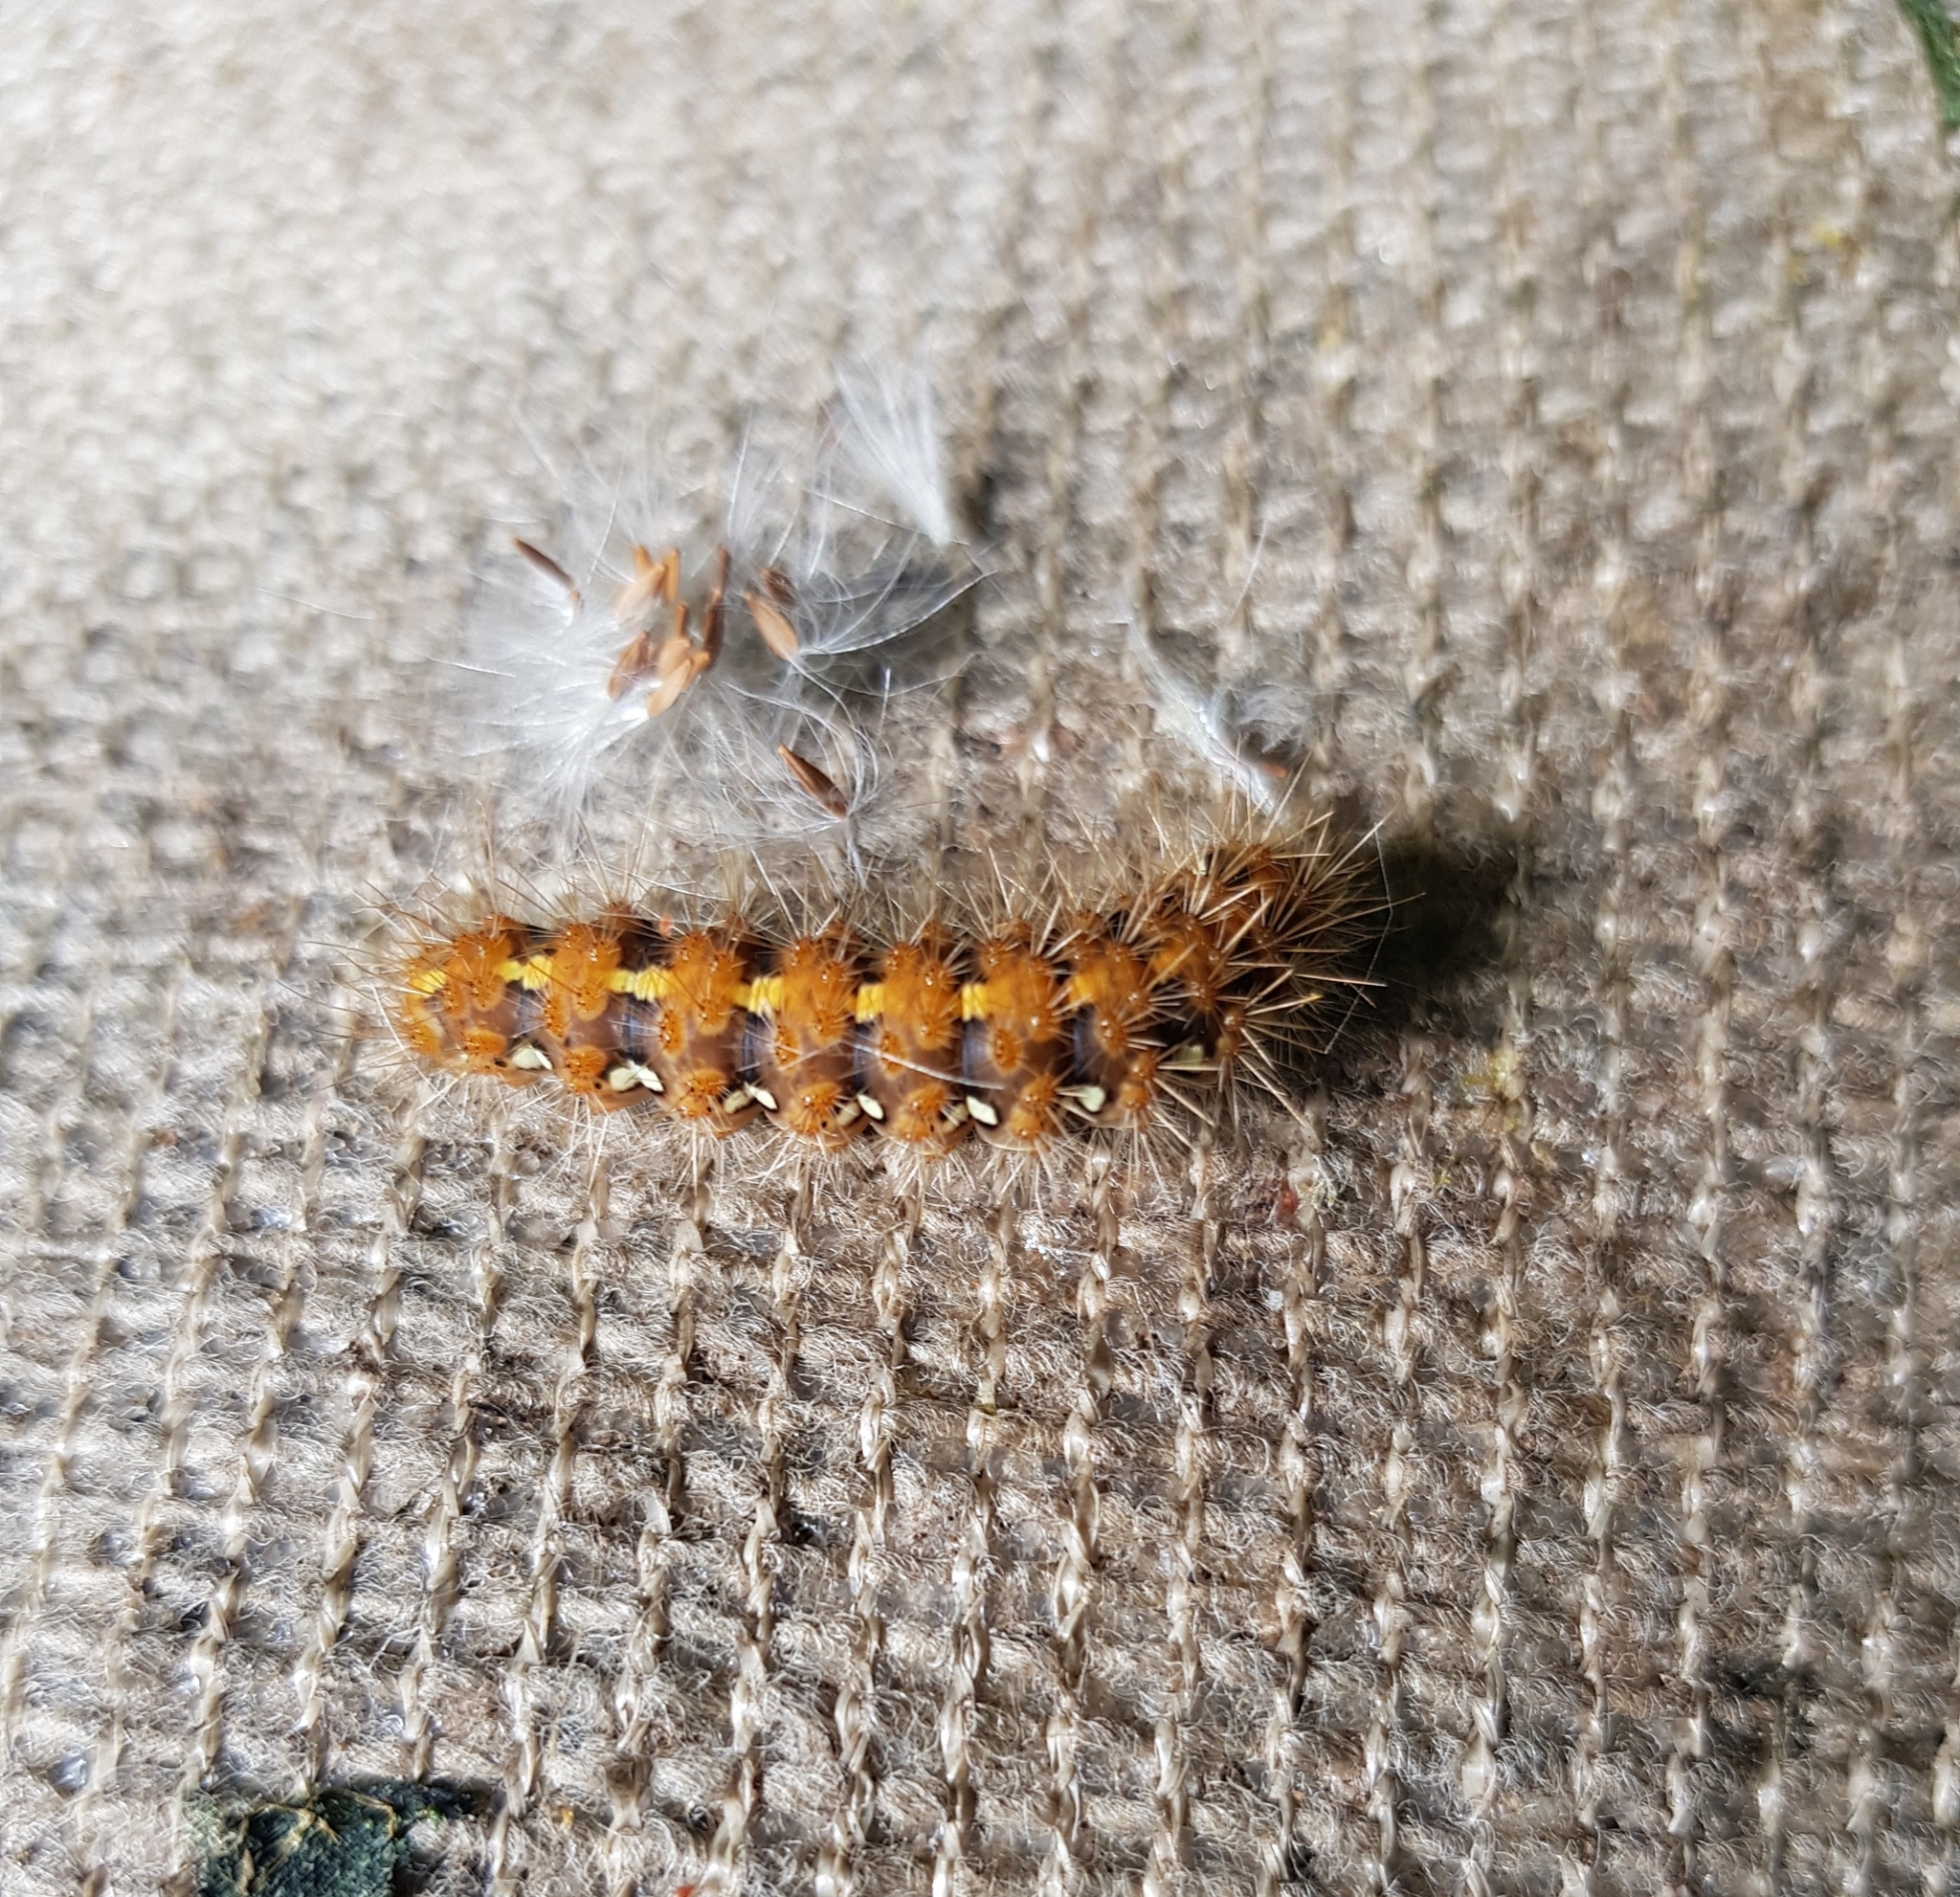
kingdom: Animalia
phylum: Arthropoda
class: Insecta
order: Lepidoptera
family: Erebidae
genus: Euplagia
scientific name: Euplagia quadripunctaria
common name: Jersey tiger
